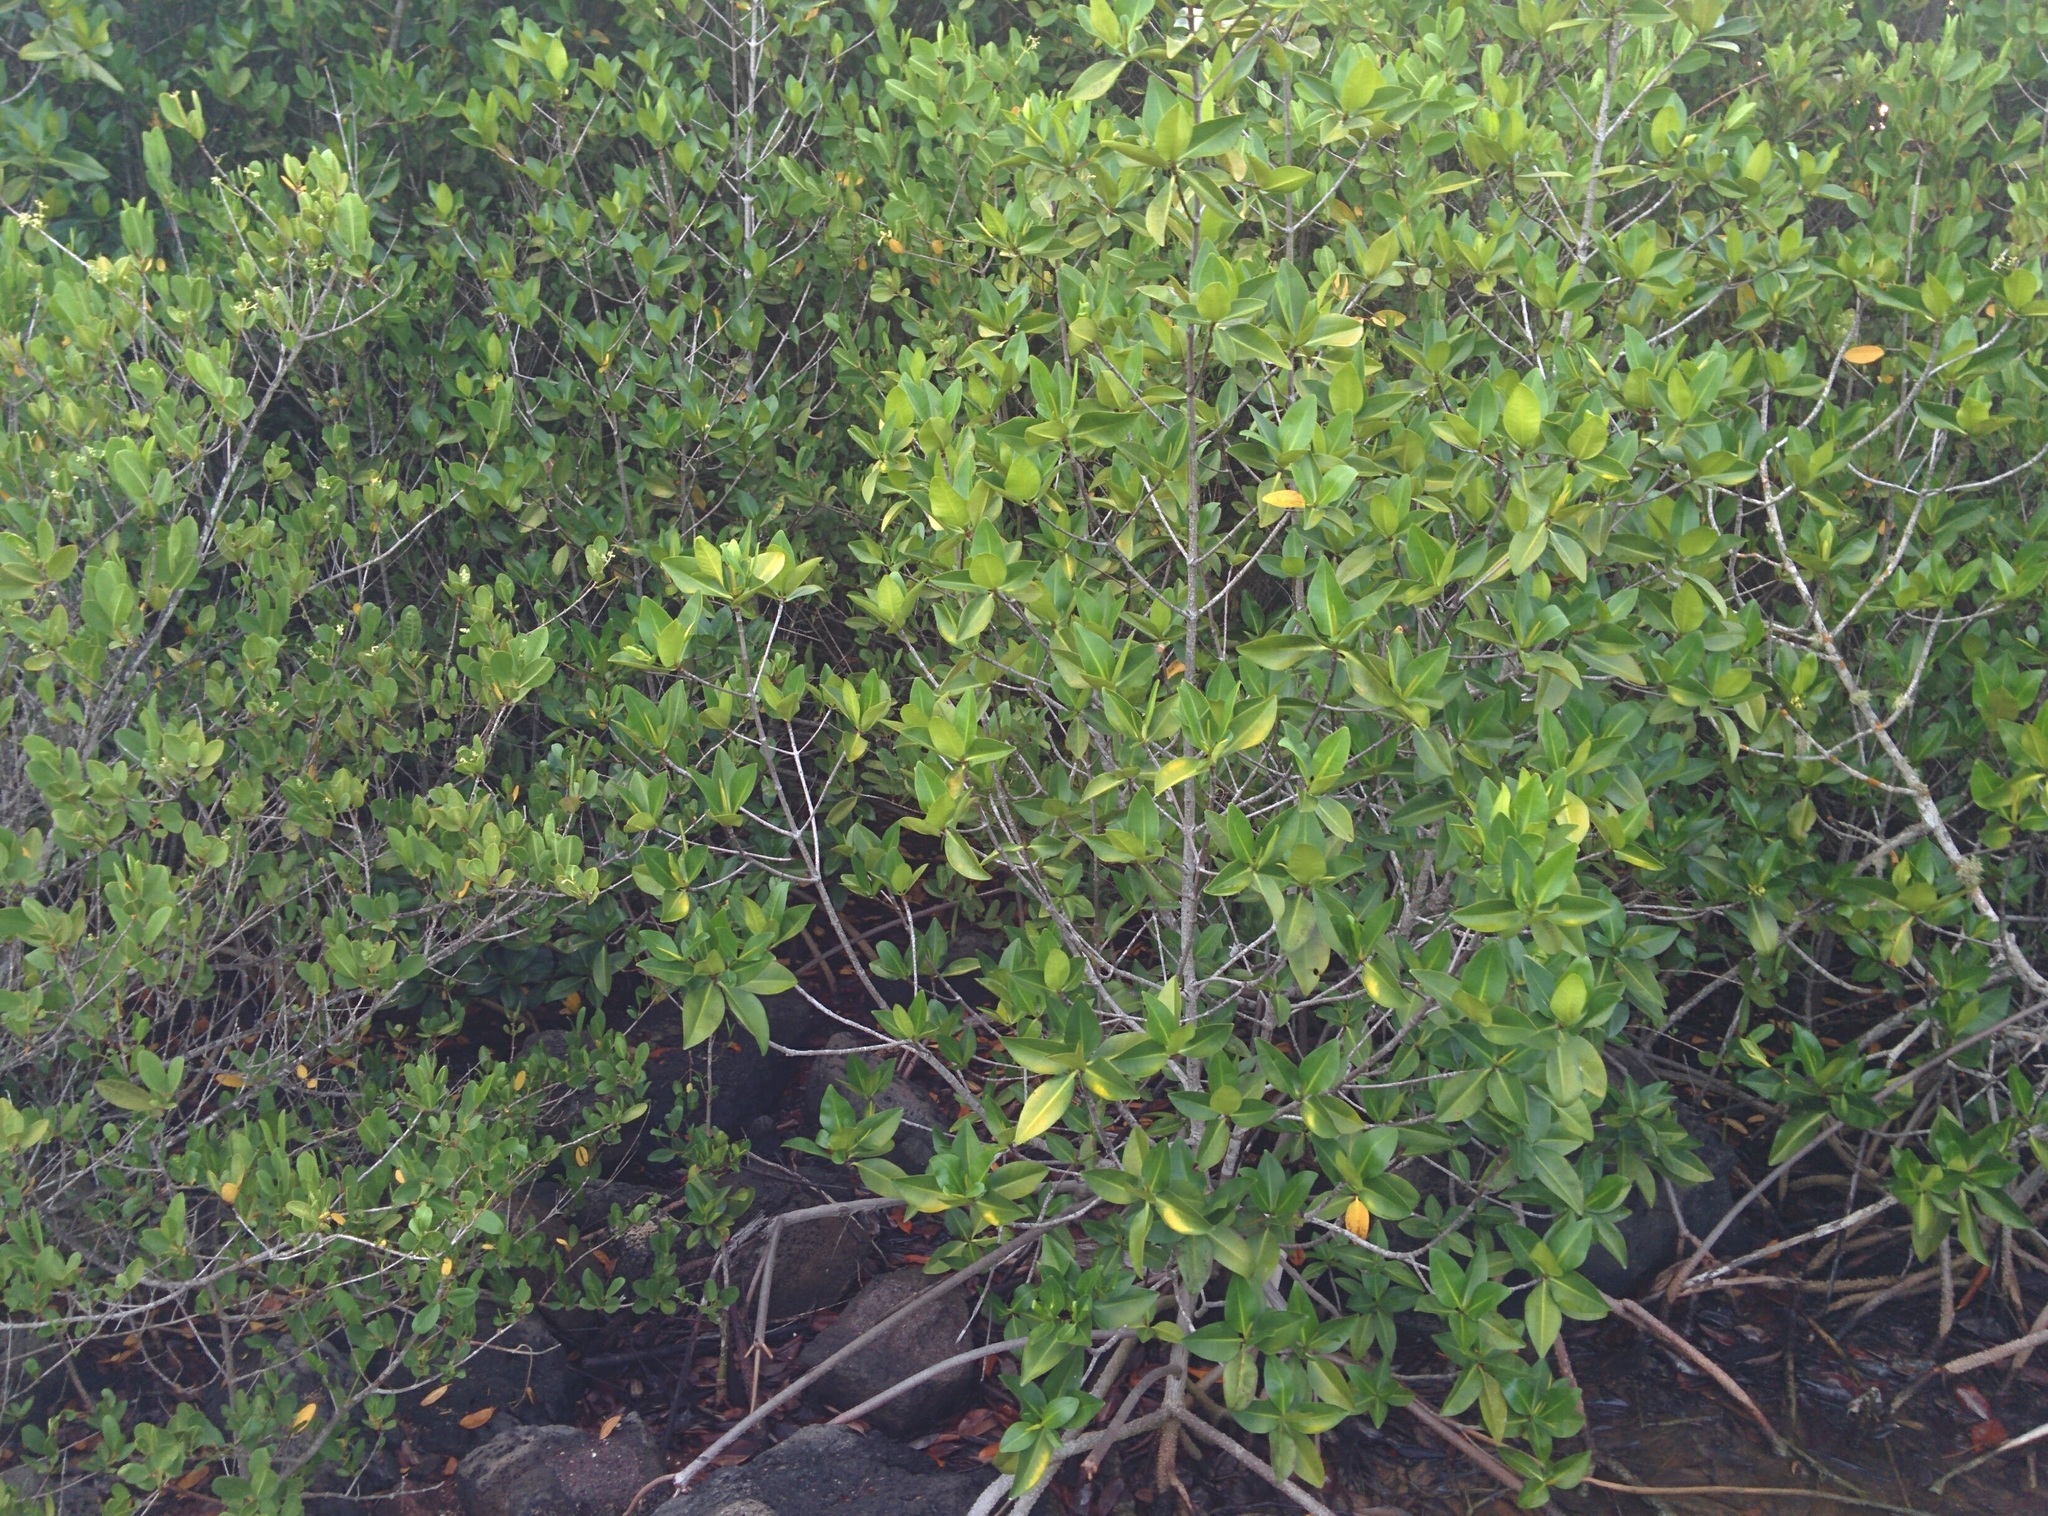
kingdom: Plantae
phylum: Tracheophyta
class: Magnoliopsida
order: Malpighiales
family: Rhizophoraceae
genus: Rhizophora
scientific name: Rhizophora mangle
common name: Red mangrove
